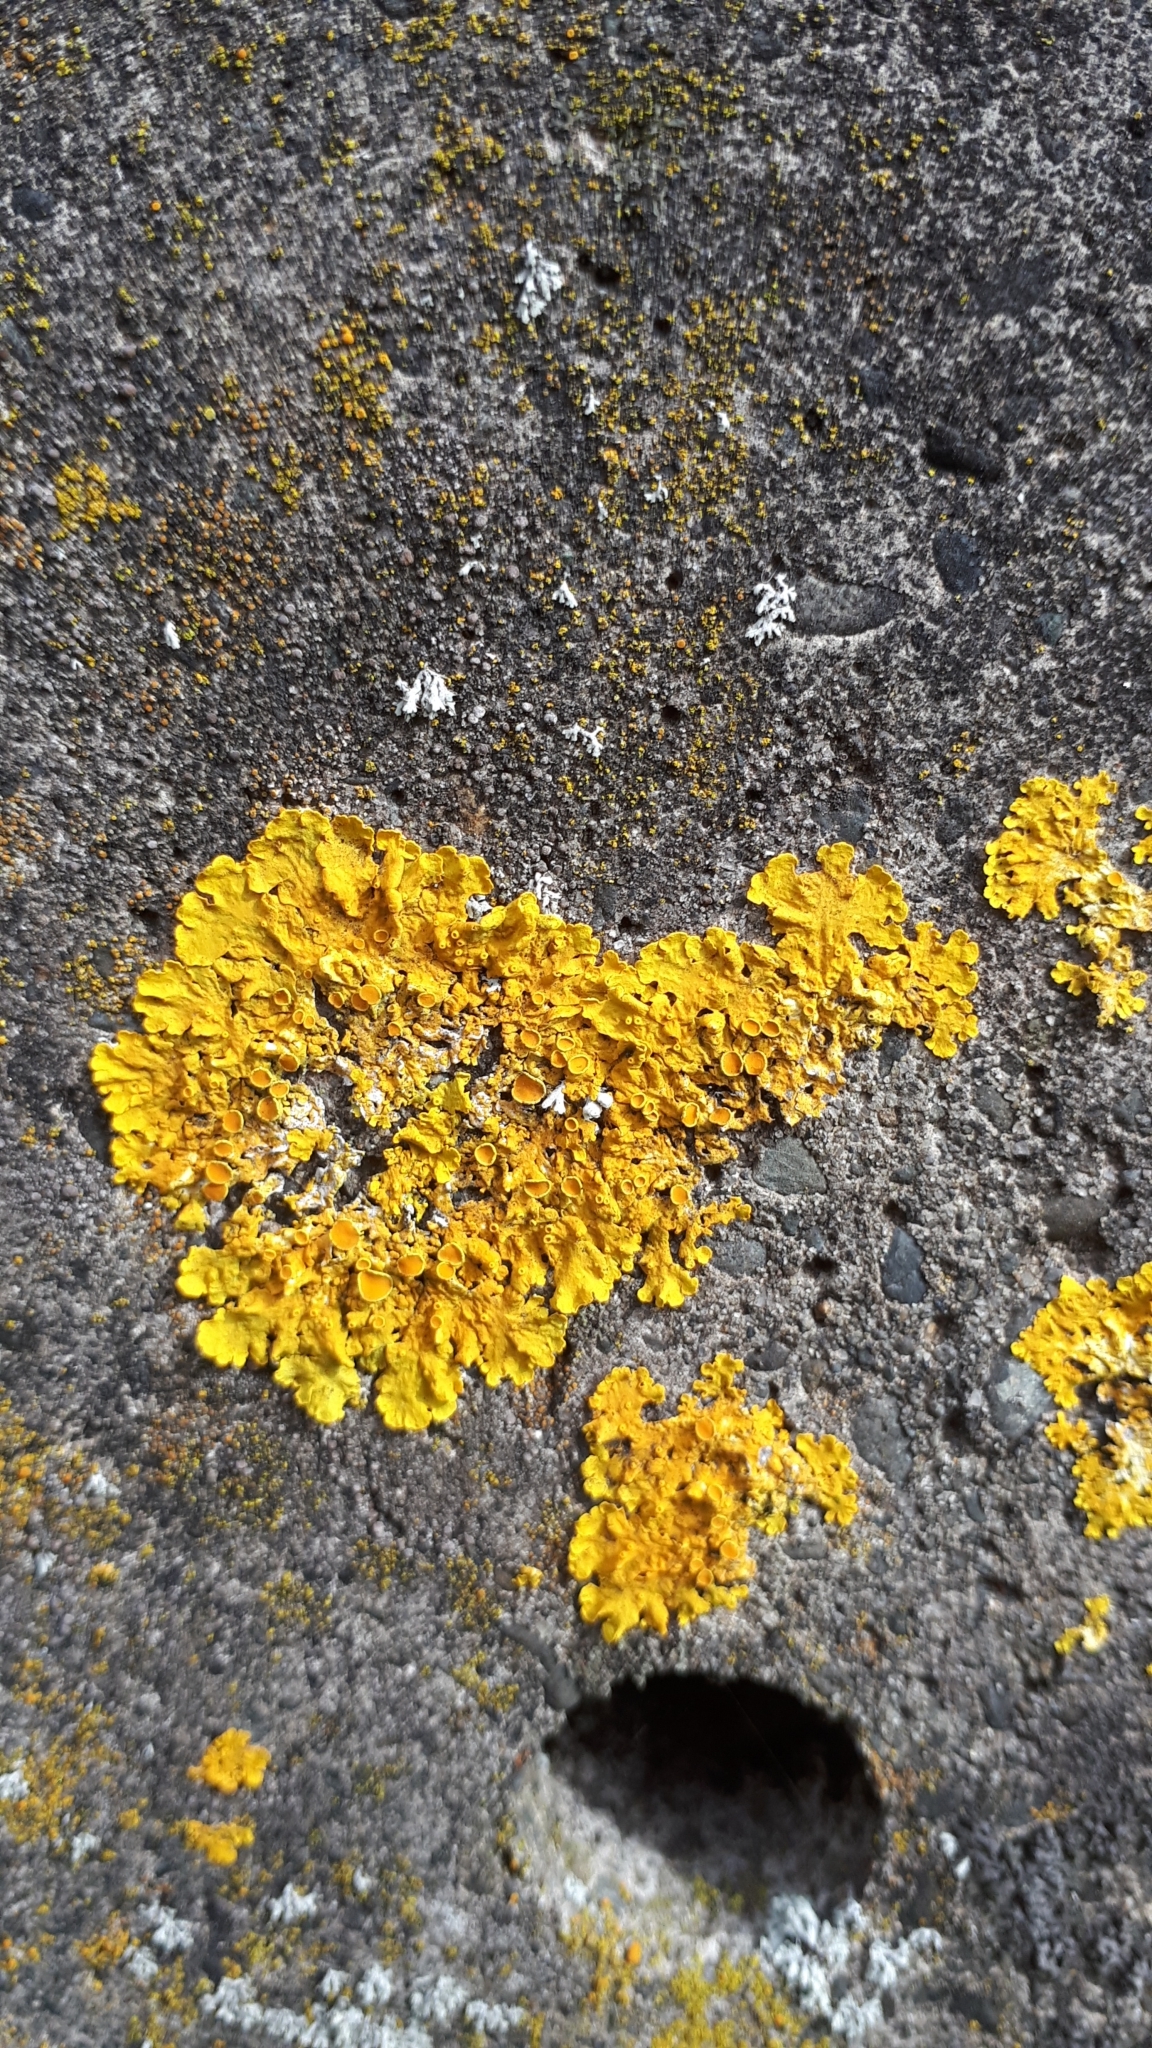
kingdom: Fungi
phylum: Ascomycota
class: Lecanoromycetes
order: Teloschistales
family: Teloschistaceae
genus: Xanthoria
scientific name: Xanthoria parietina
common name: Common orange lichen
